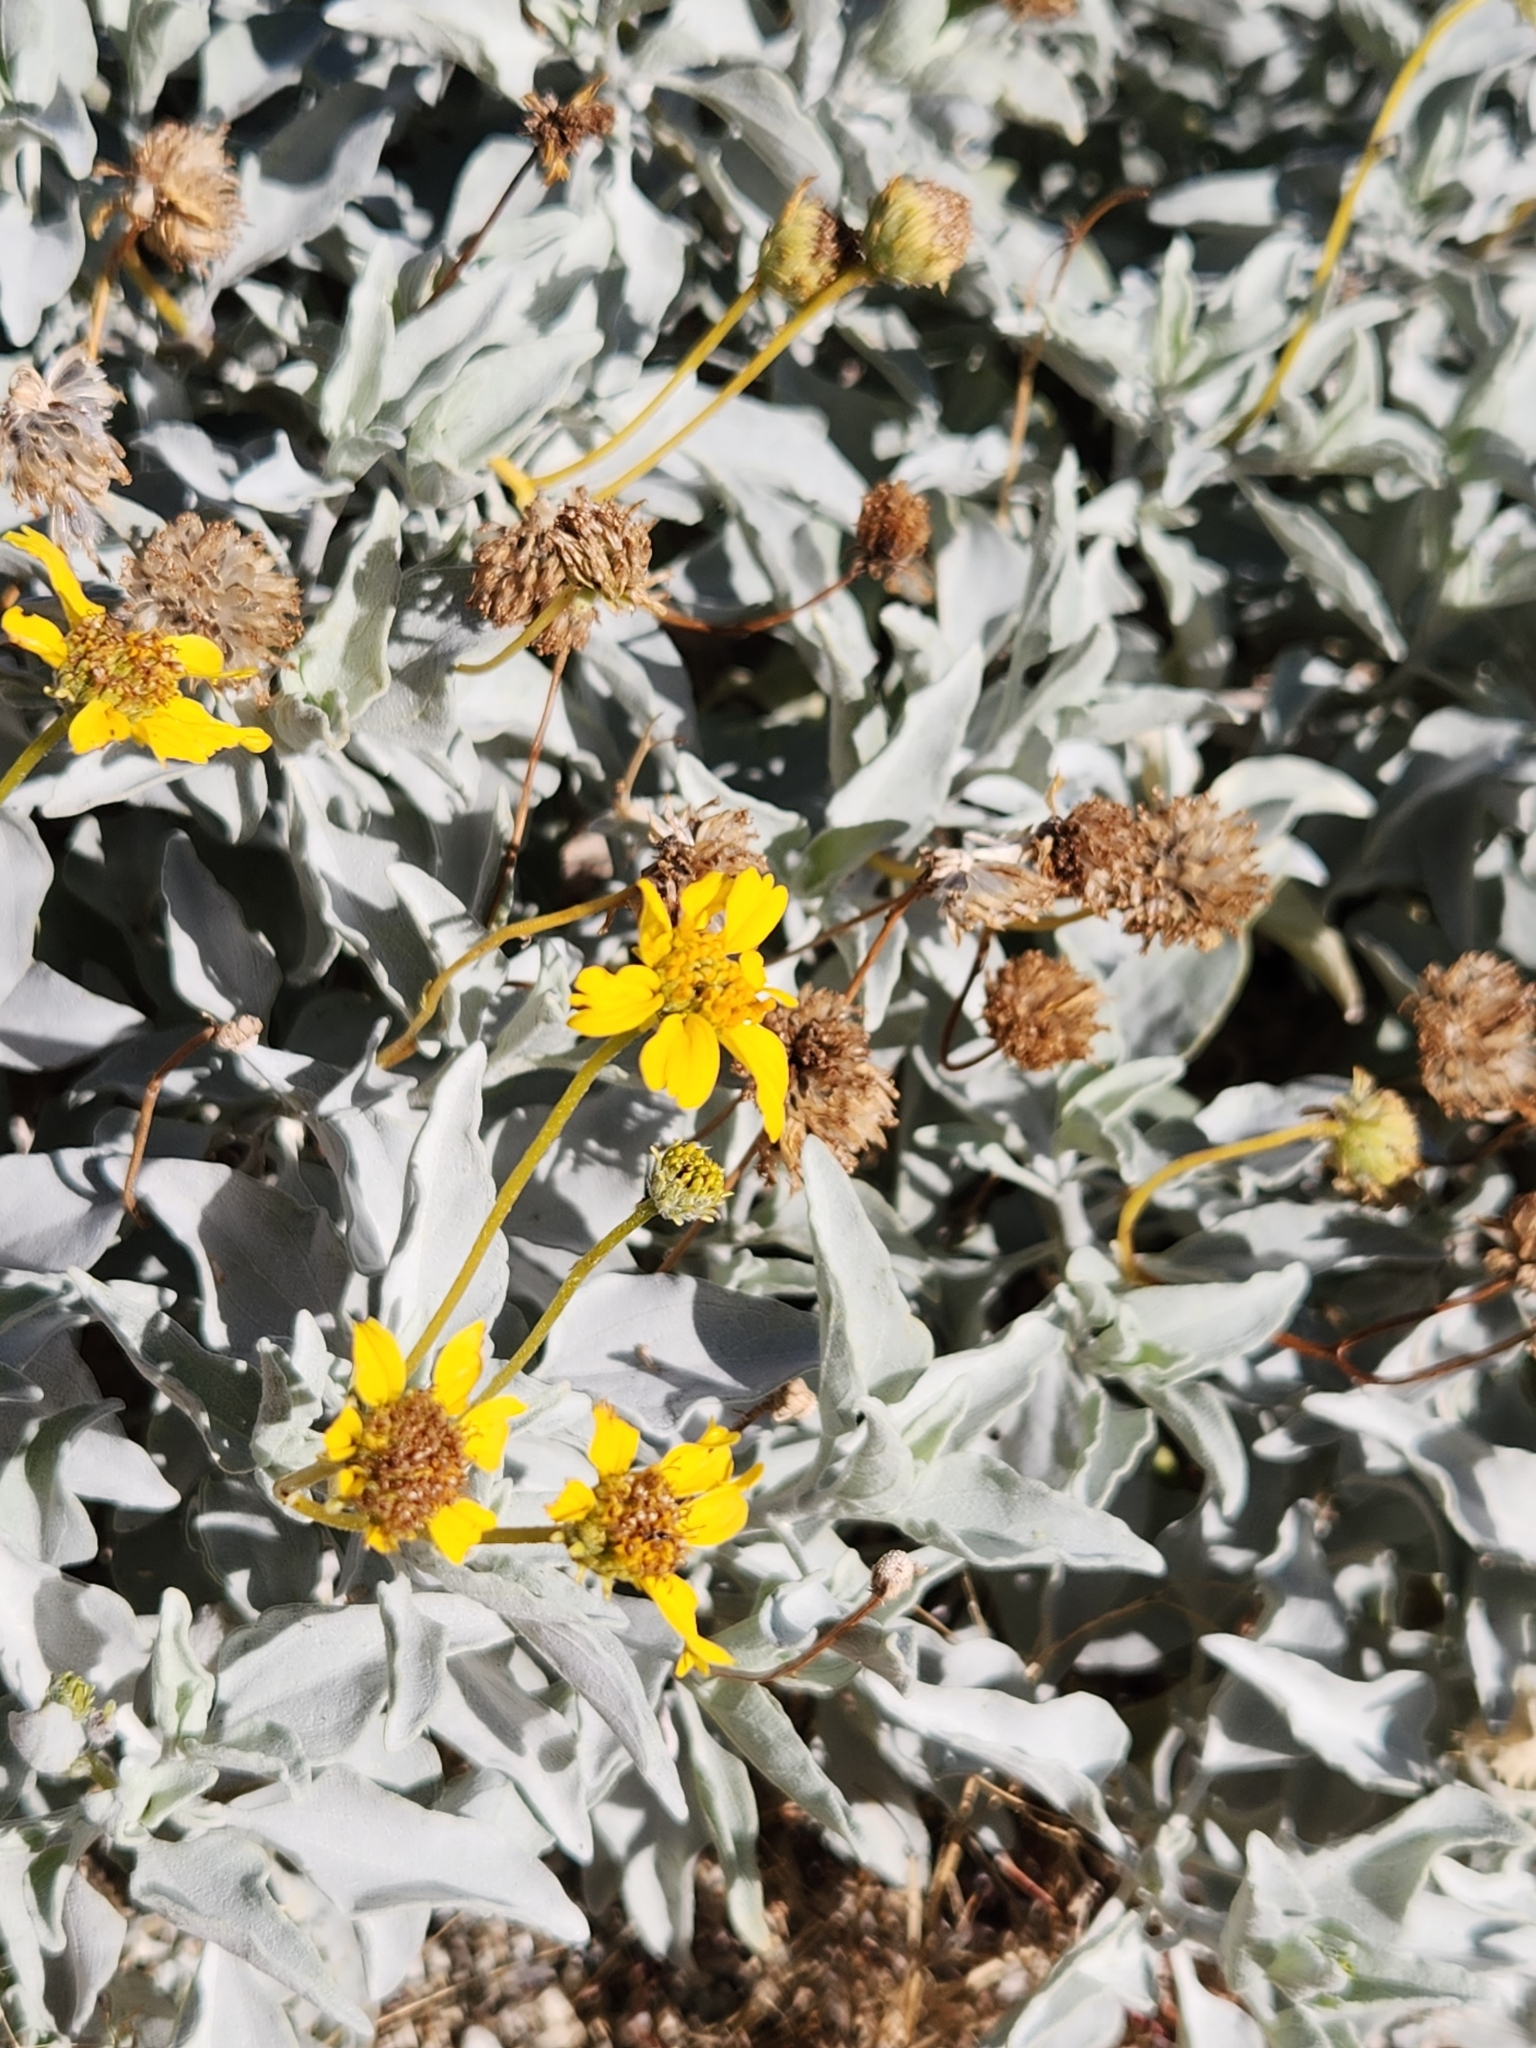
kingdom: Plantae
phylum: Tracheophyta
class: Magnoliopsida
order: Asterales
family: Asteraceae
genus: Encelia
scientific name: Encelia farinosa
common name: Brittlebush
